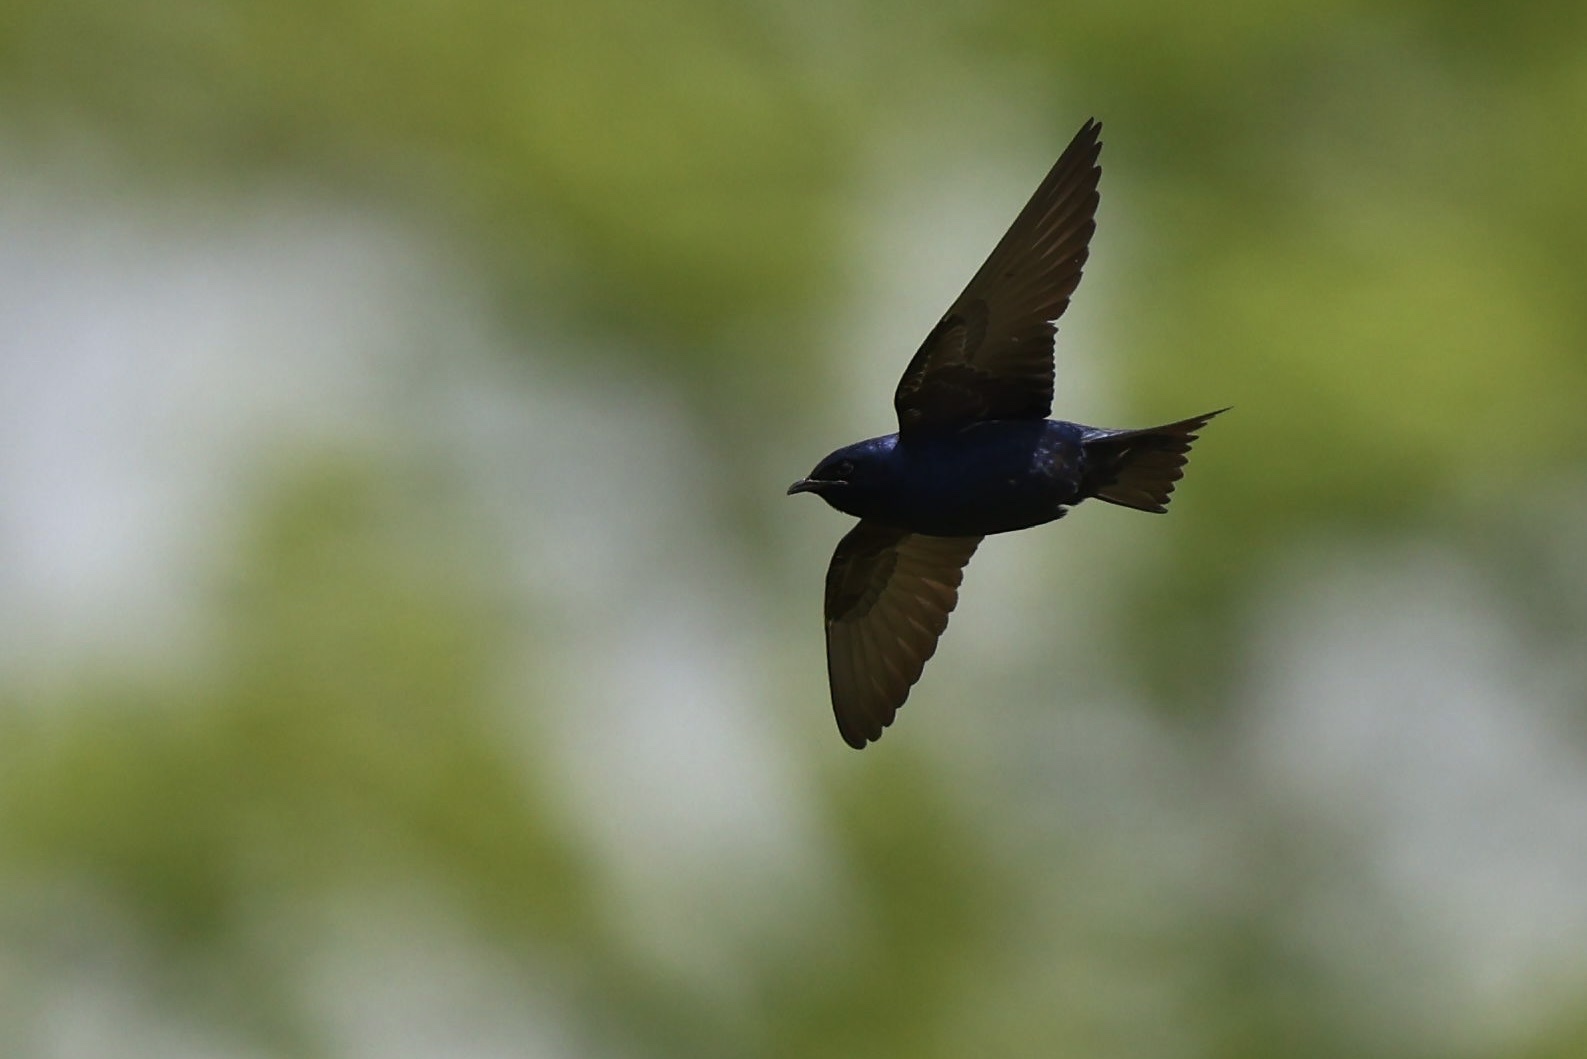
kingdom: Animalia
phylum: Chordata
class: Aves
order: Passeriformes
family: Hirundinidae
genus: Progne
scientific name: Progne subis
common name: Purple martin
